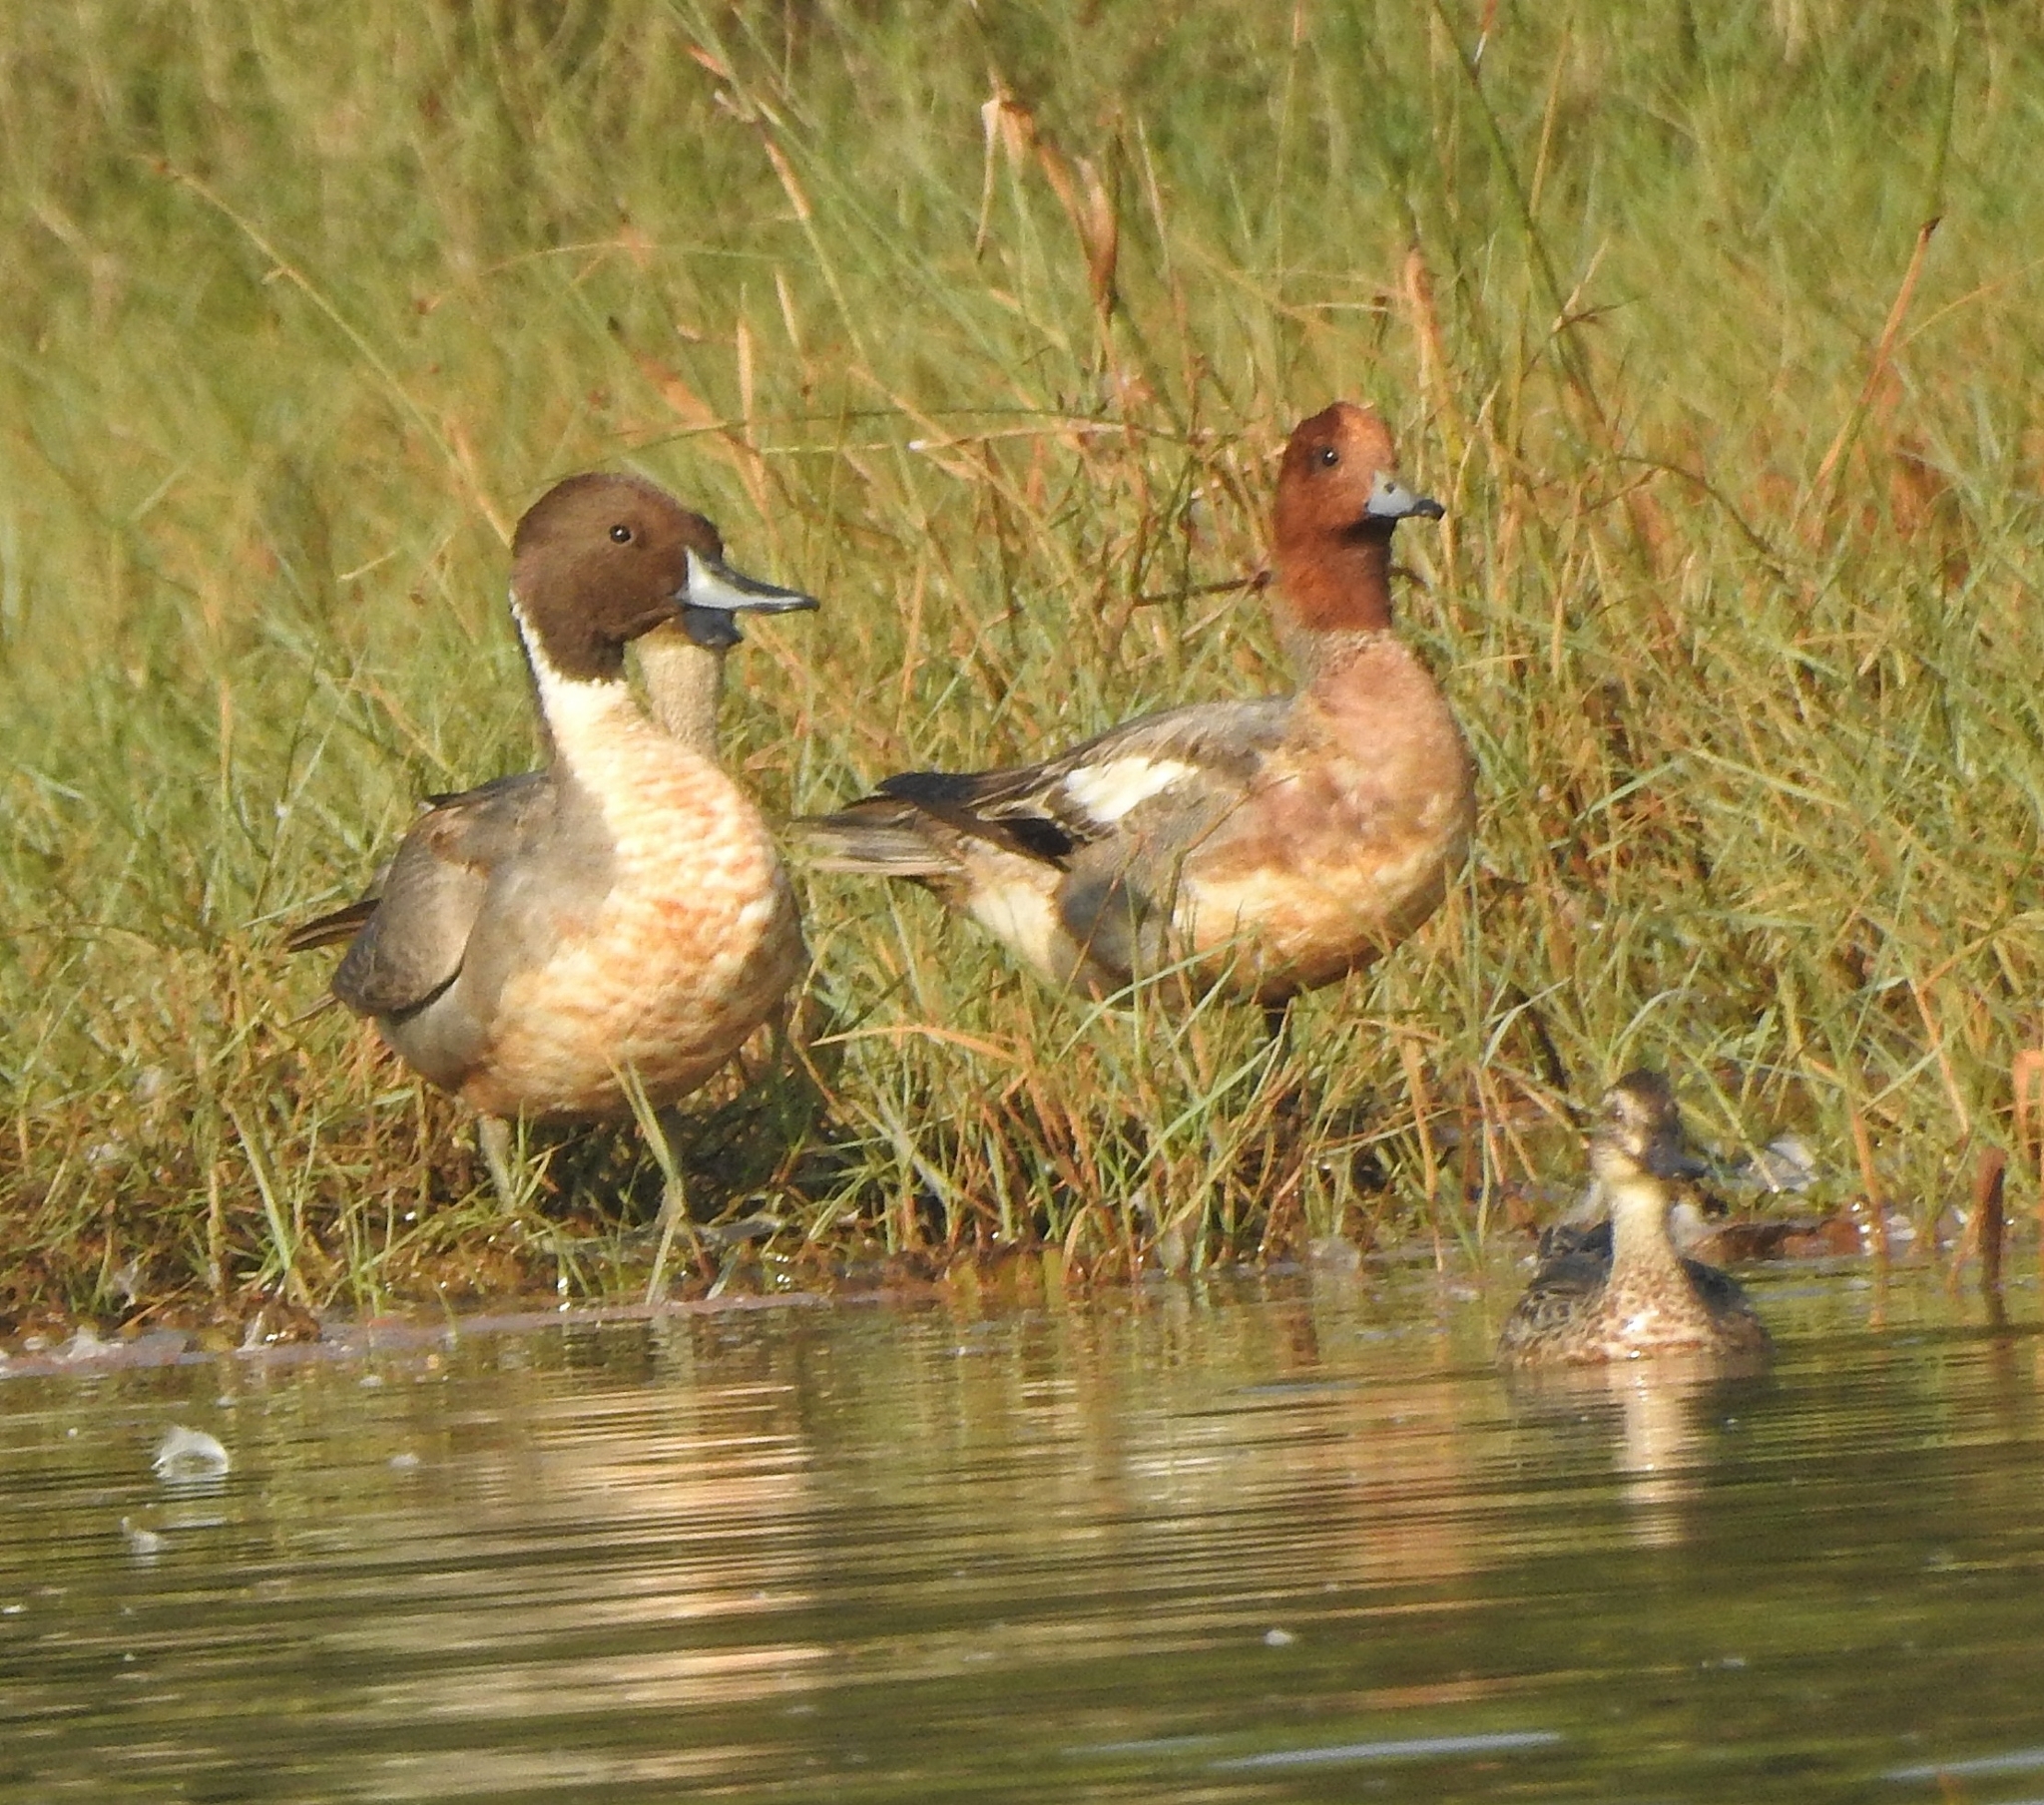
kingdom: Animalia
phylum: Chordata
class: Aves
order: Anseriformes
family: Anatidae
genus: Mareca
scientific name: Mareca penelope
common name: Eurasian wigeon
